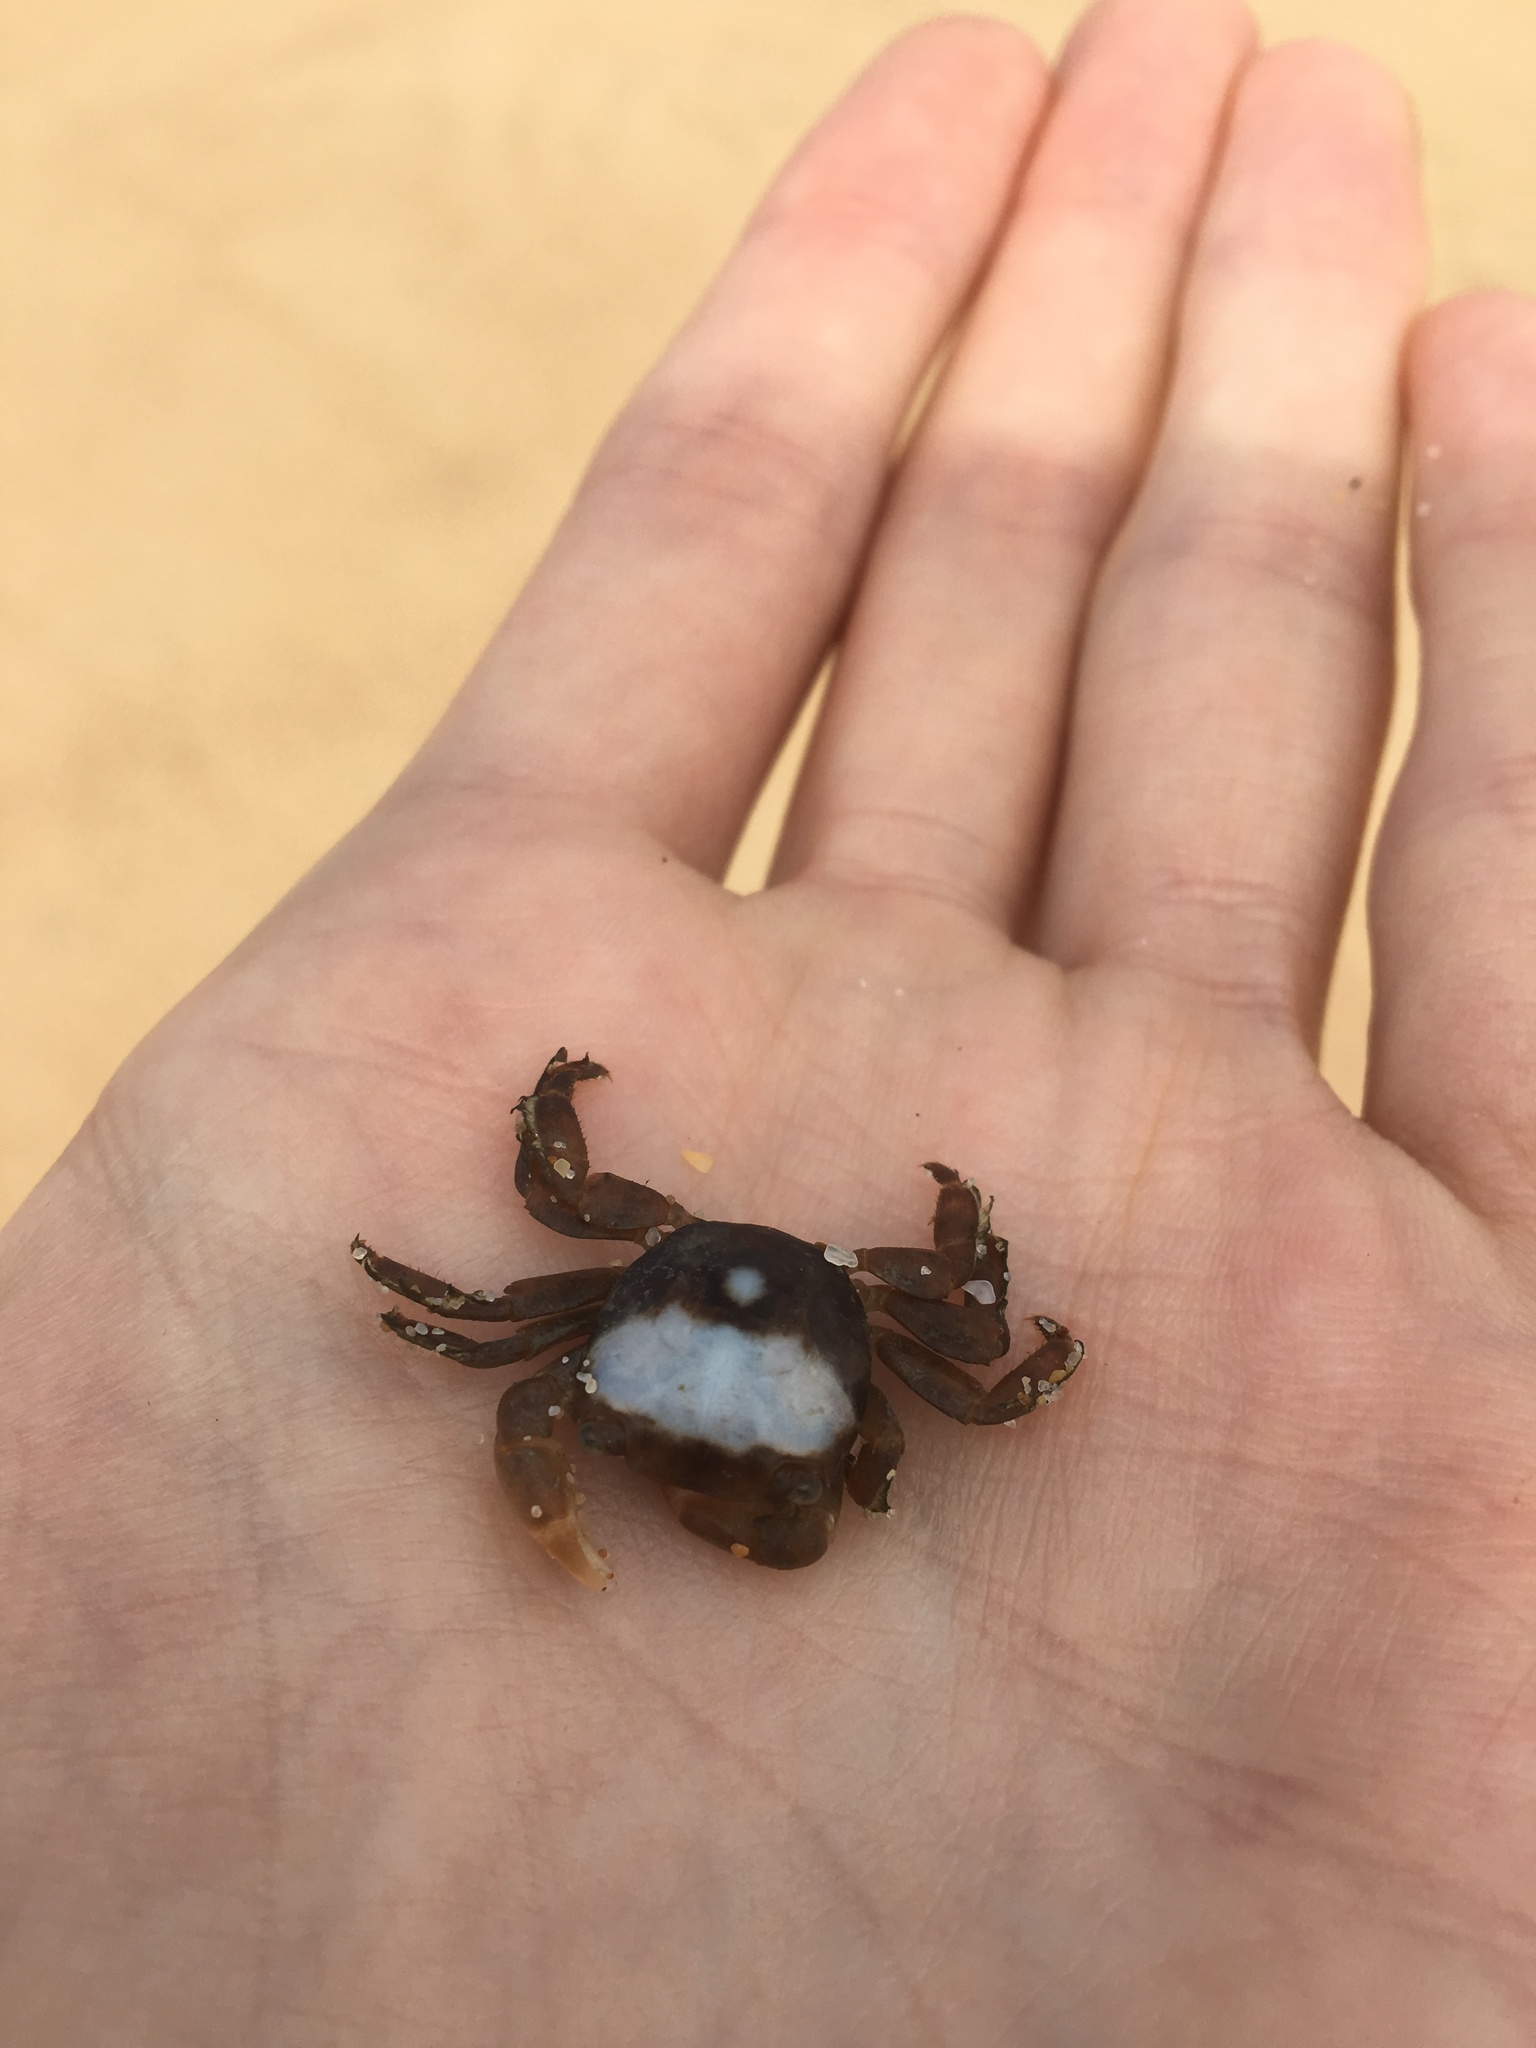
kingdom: Animalia
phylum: Arthropoda
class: Malacostraca
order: Decapoda
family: Grapsidae
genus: Planes
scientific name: Planes minutus
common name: Gulf weed crab
